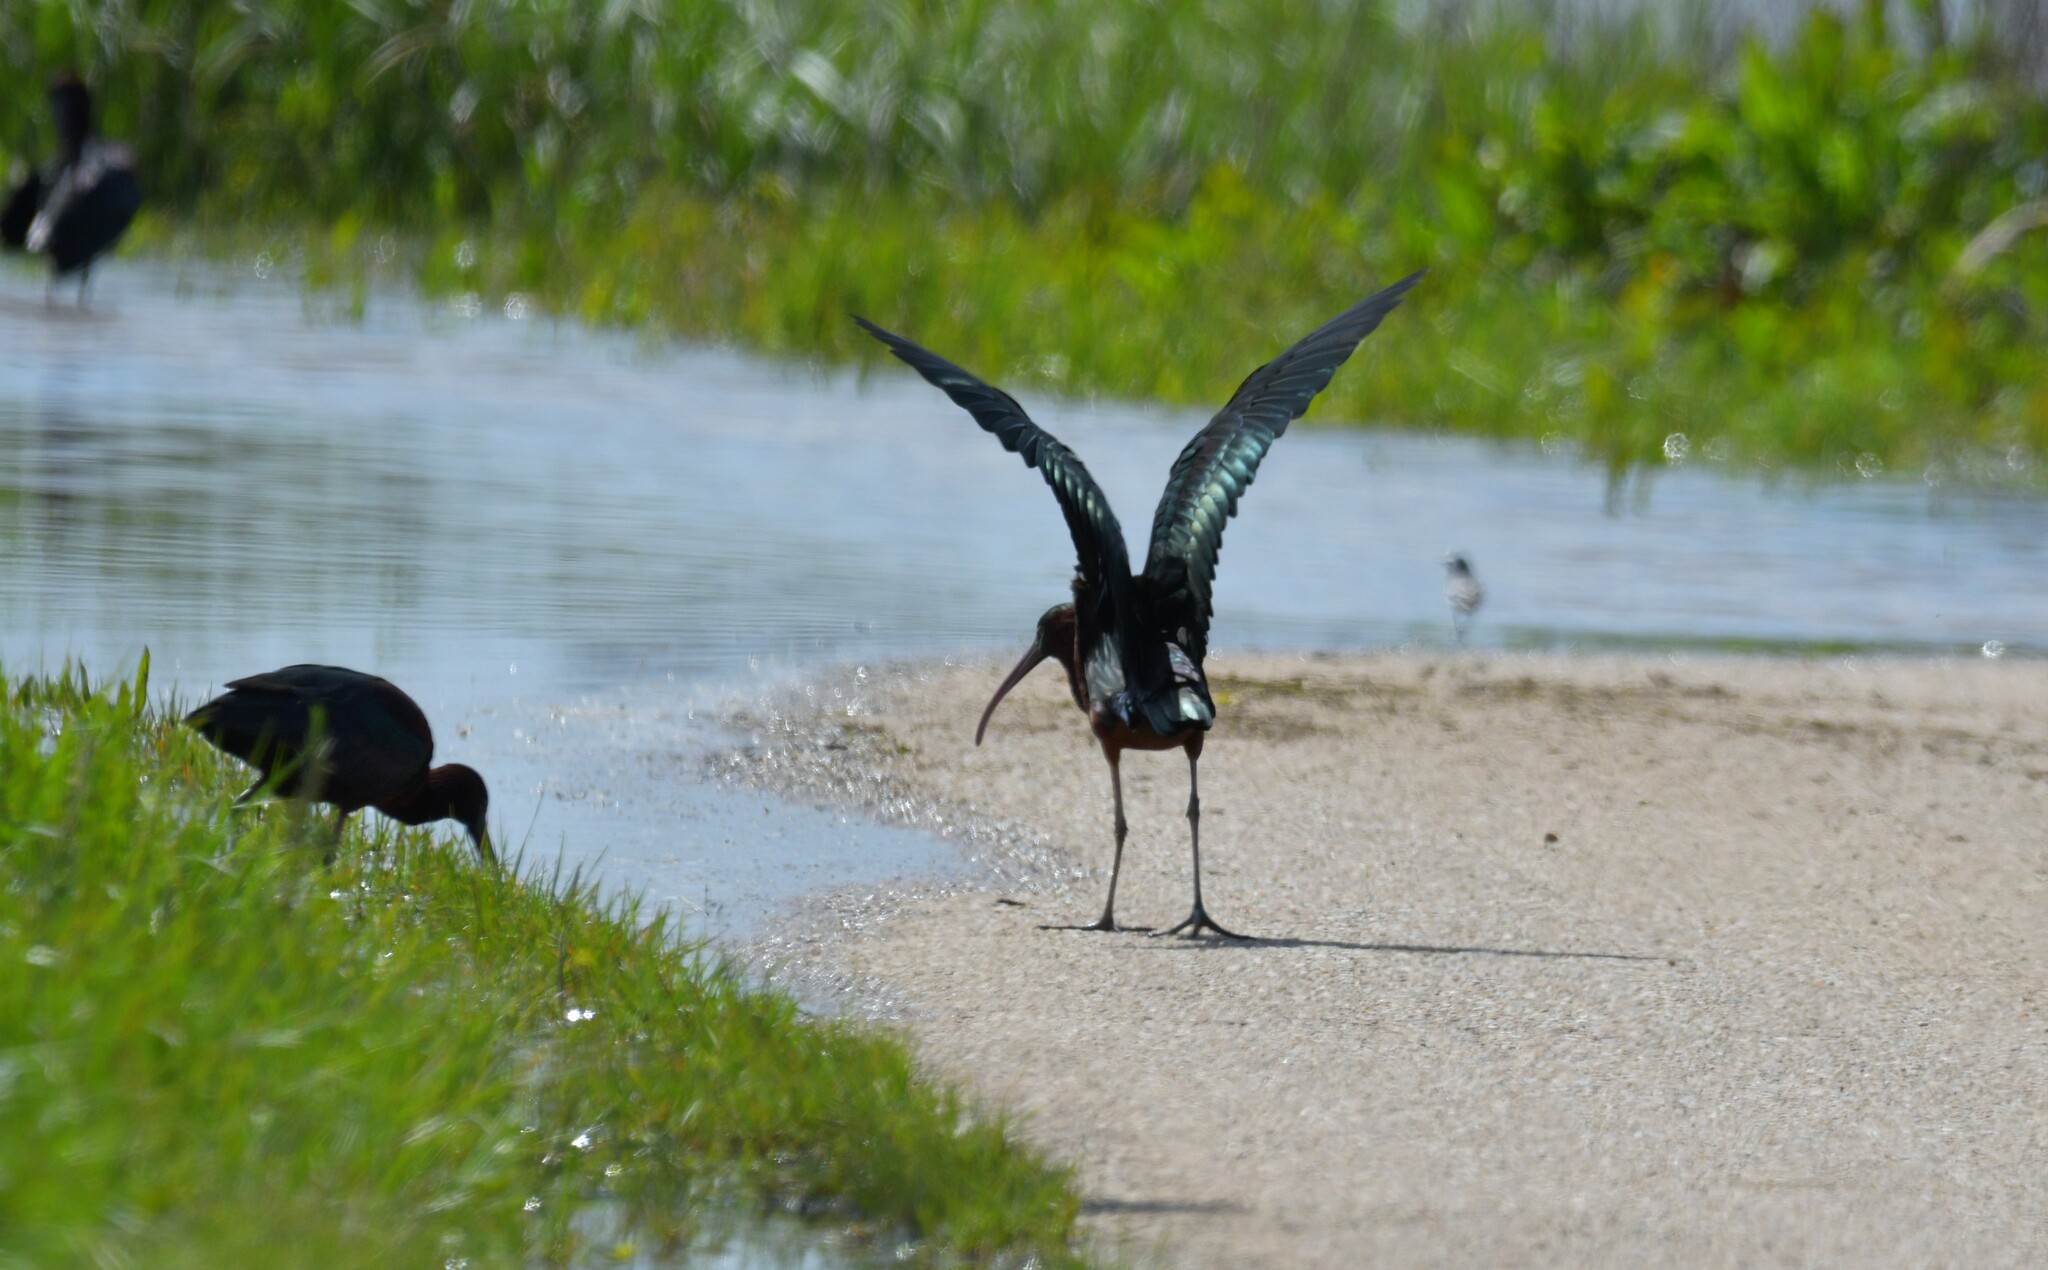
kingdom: Animalia
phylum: Chordata
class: Aves
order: Pelecaniformes
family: Threskiornithidae
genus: Plegadis
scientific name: Plegadis falcinellus
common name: Glossy ibis
